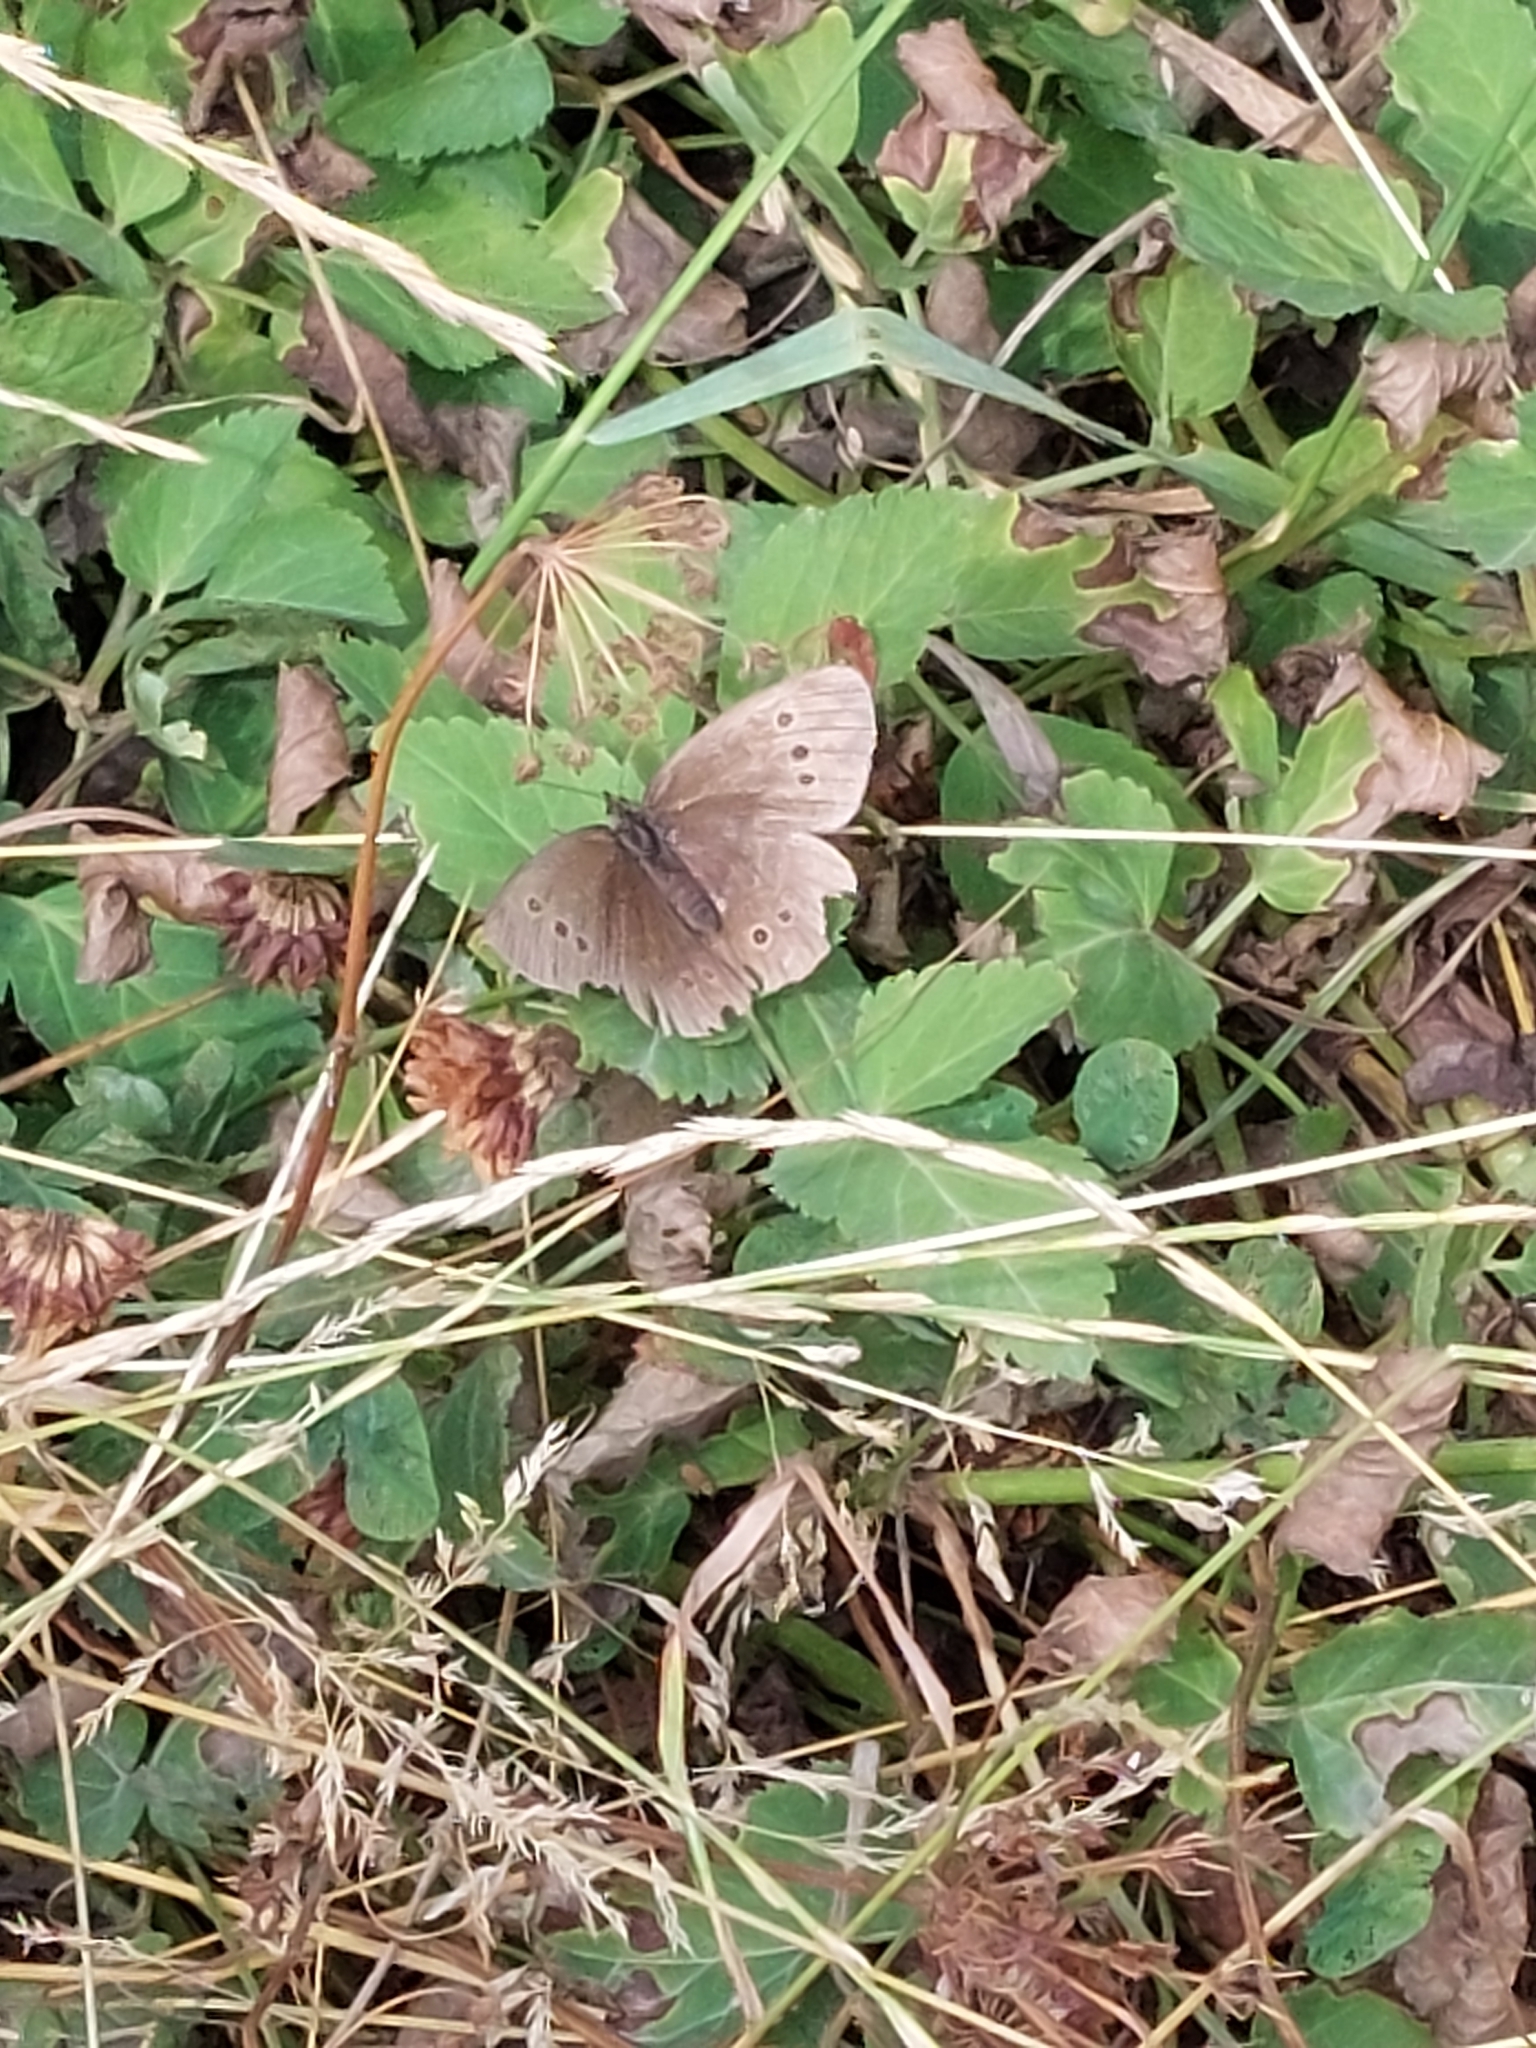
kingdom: Animalia
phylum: Arthropoda
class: Insecta
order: Lepidoptera
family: Nymphalidae
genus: Aphantopus
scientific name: Aphantopus hyperantus
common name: Ringlet
